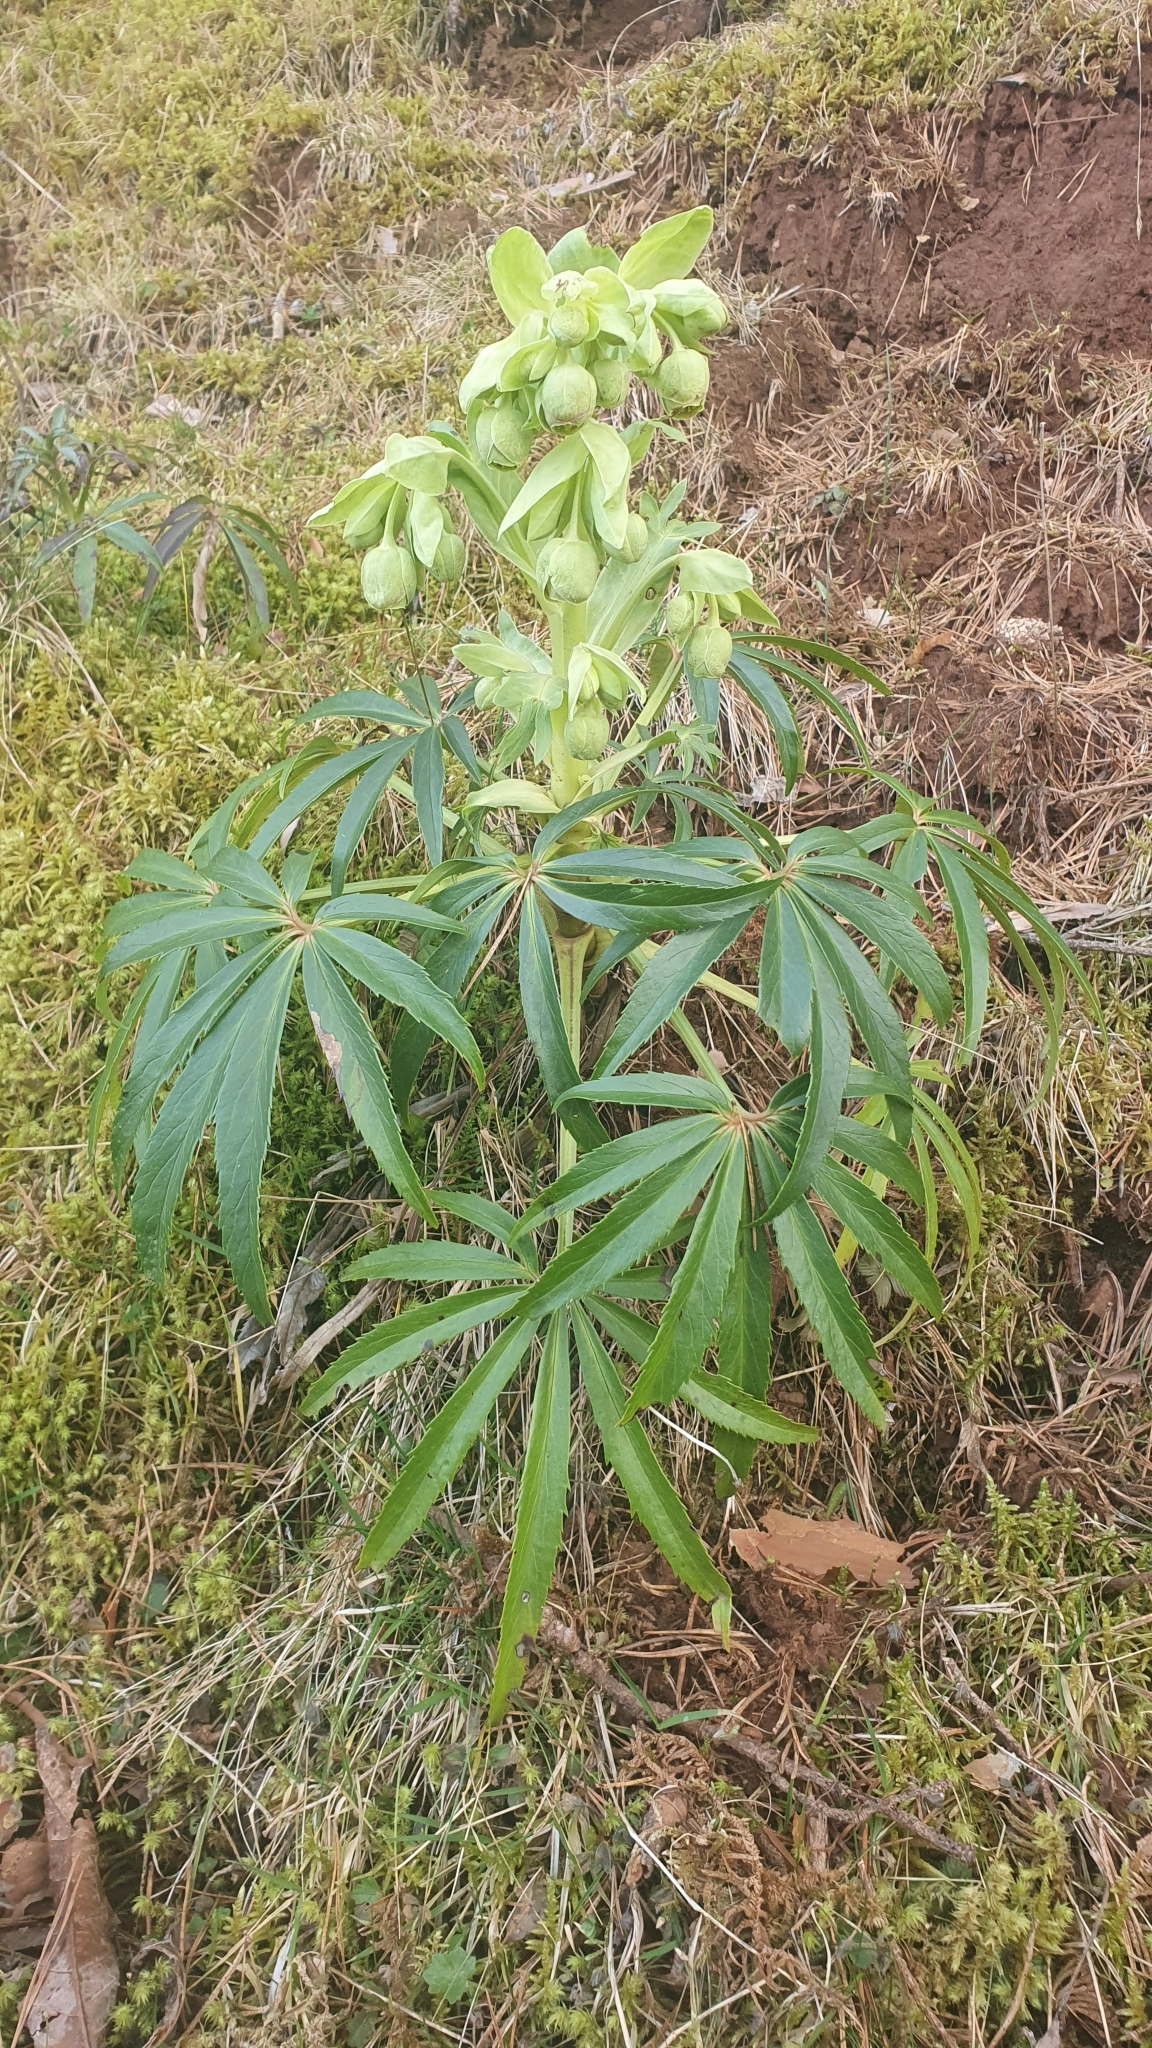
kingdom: Plantae
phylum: Tracheophyta
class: Magnoliopsida
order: Ranunculales
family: Ranunculaceae
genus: Helleborus
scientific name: Helleborus foetidus
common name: Stinking hellebore
